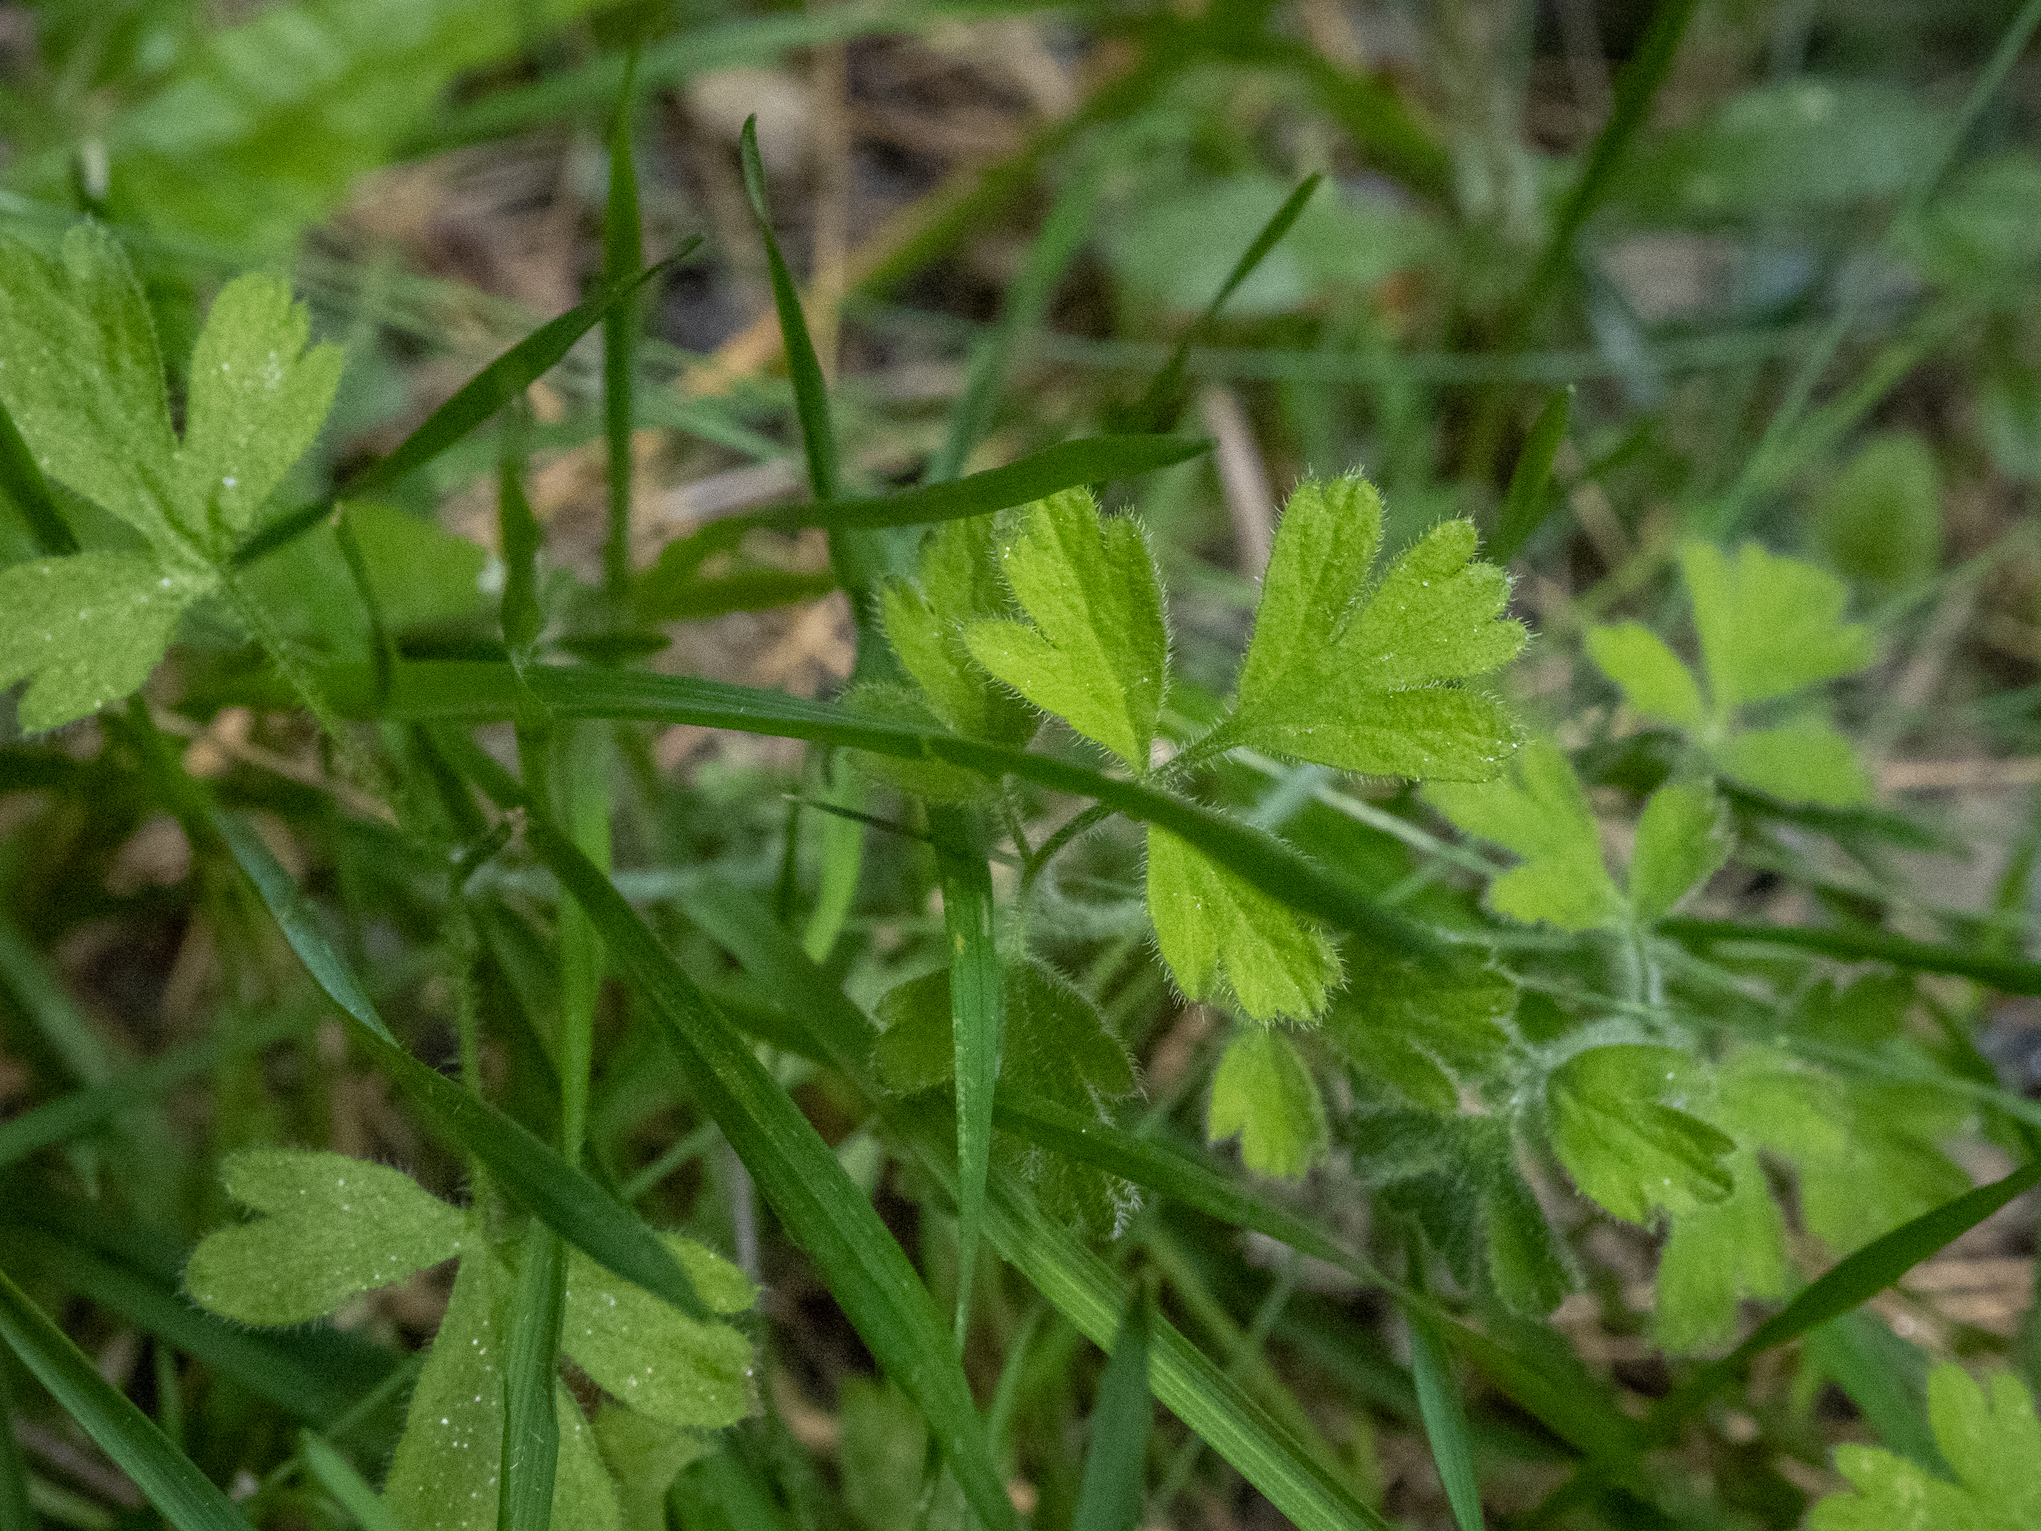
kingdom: Plantae
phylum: Tracheophyta
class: Magnoliopsida
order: Apiales
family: Apiaceae
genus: Chaerophyllum
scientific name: Chaerophyllum ramosum
